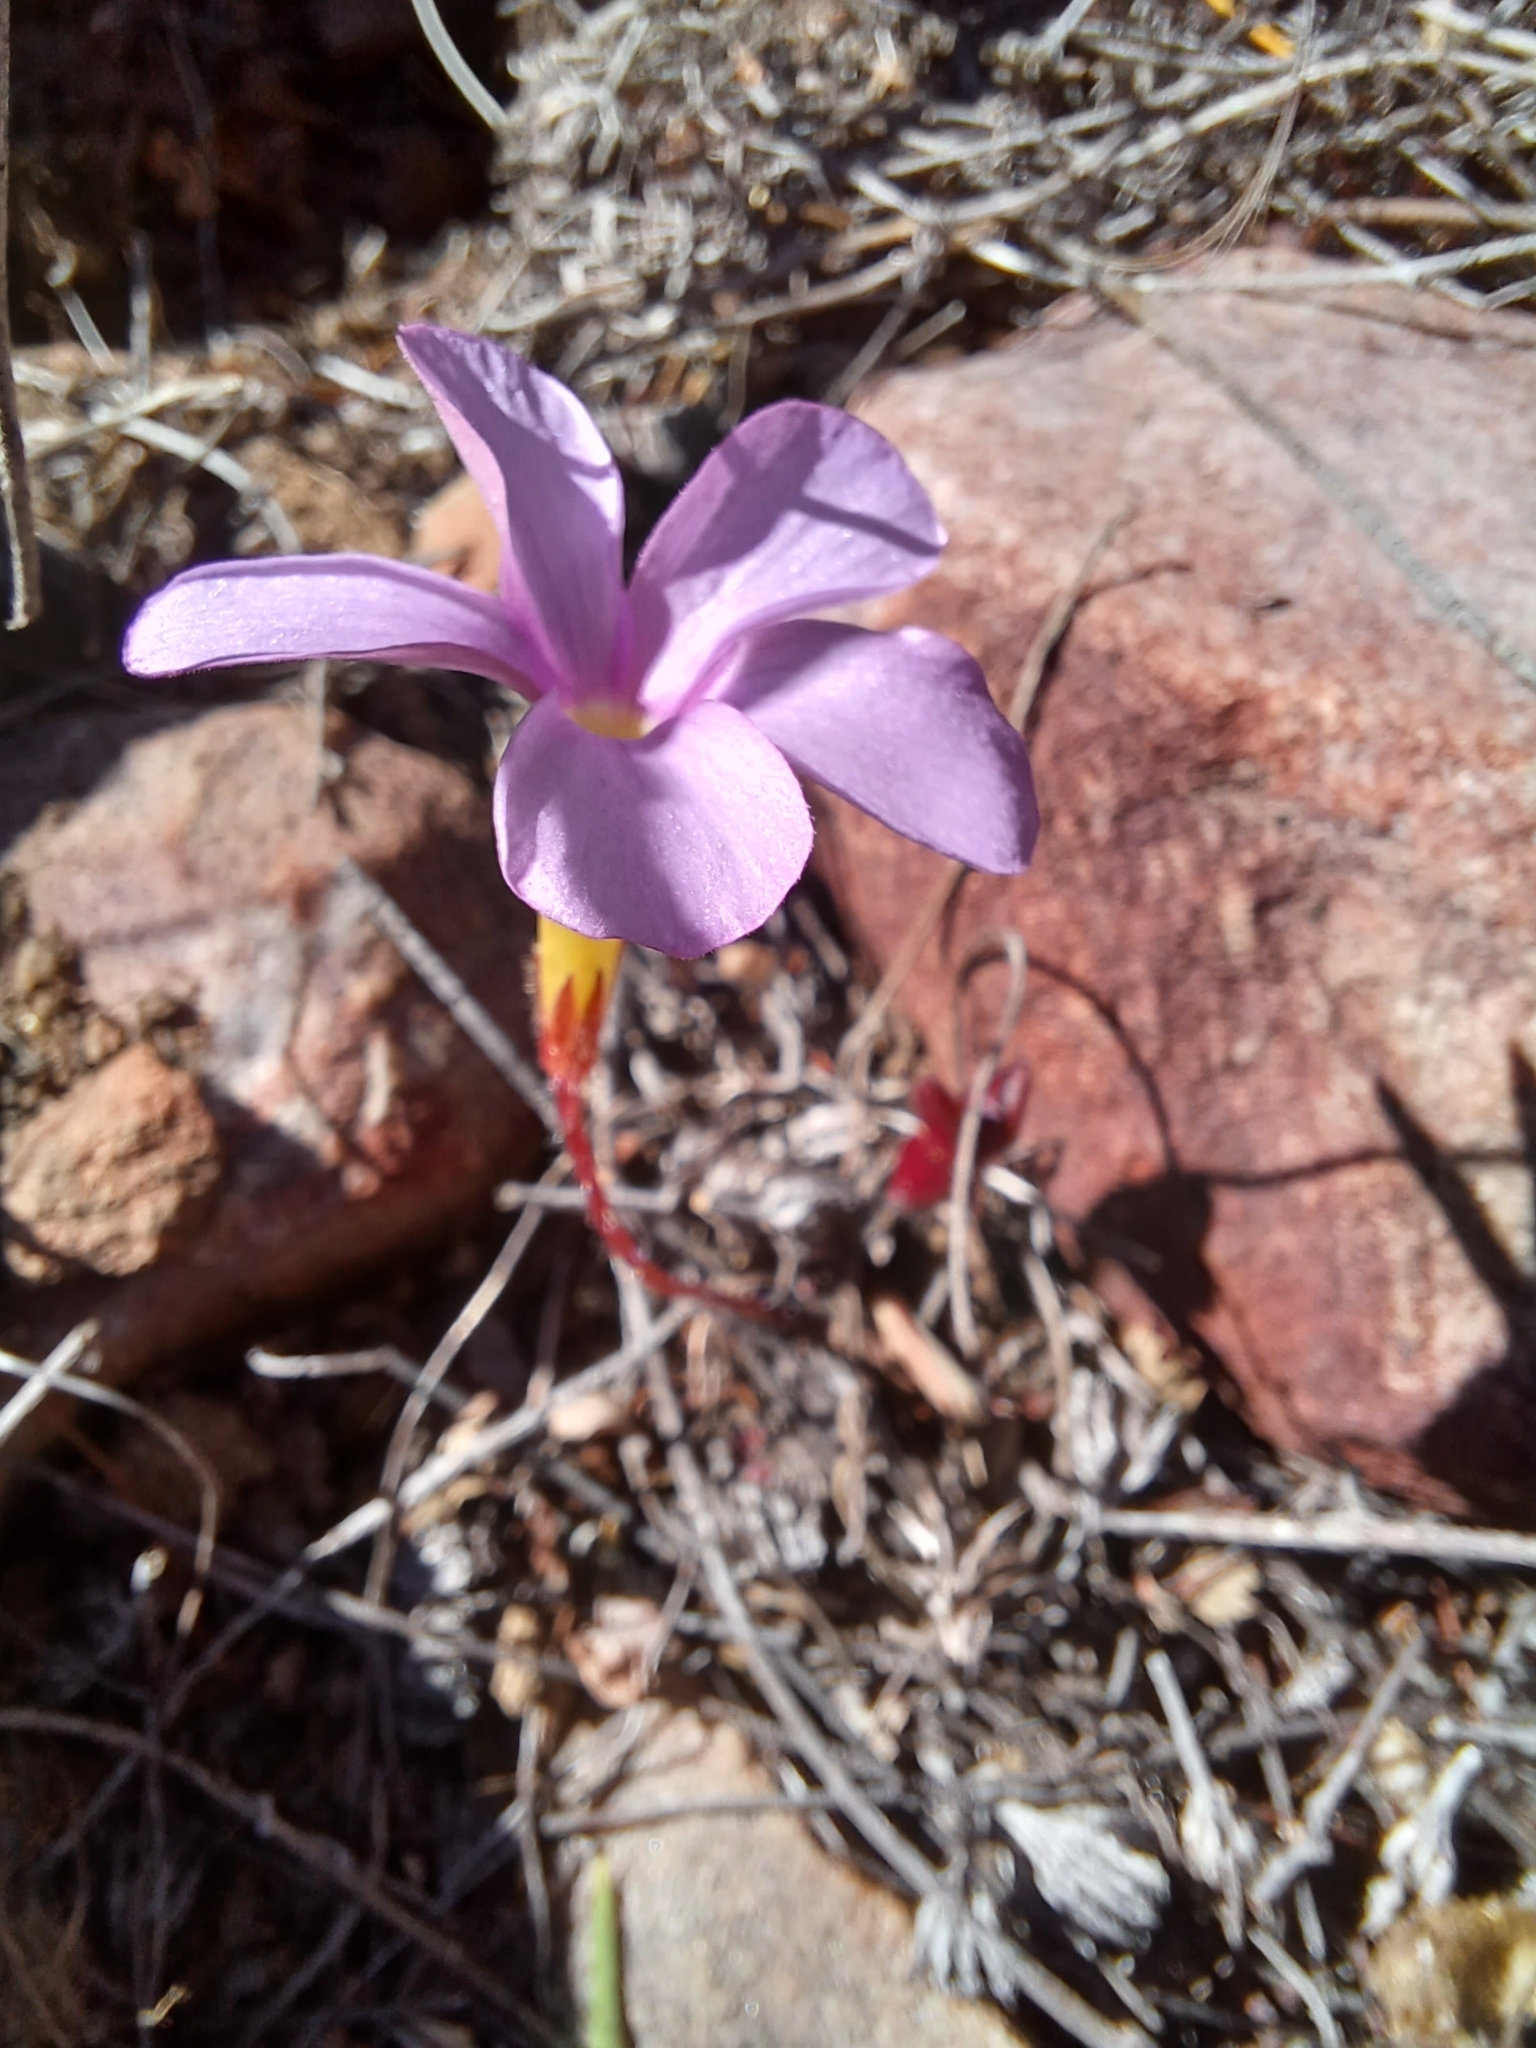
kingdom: Plantae
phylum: Tracheophyta
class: Magnoliopsida
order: Oxalidales
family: Oxalidaceae
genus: Oxalis
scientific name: Oxalis eckloniana
